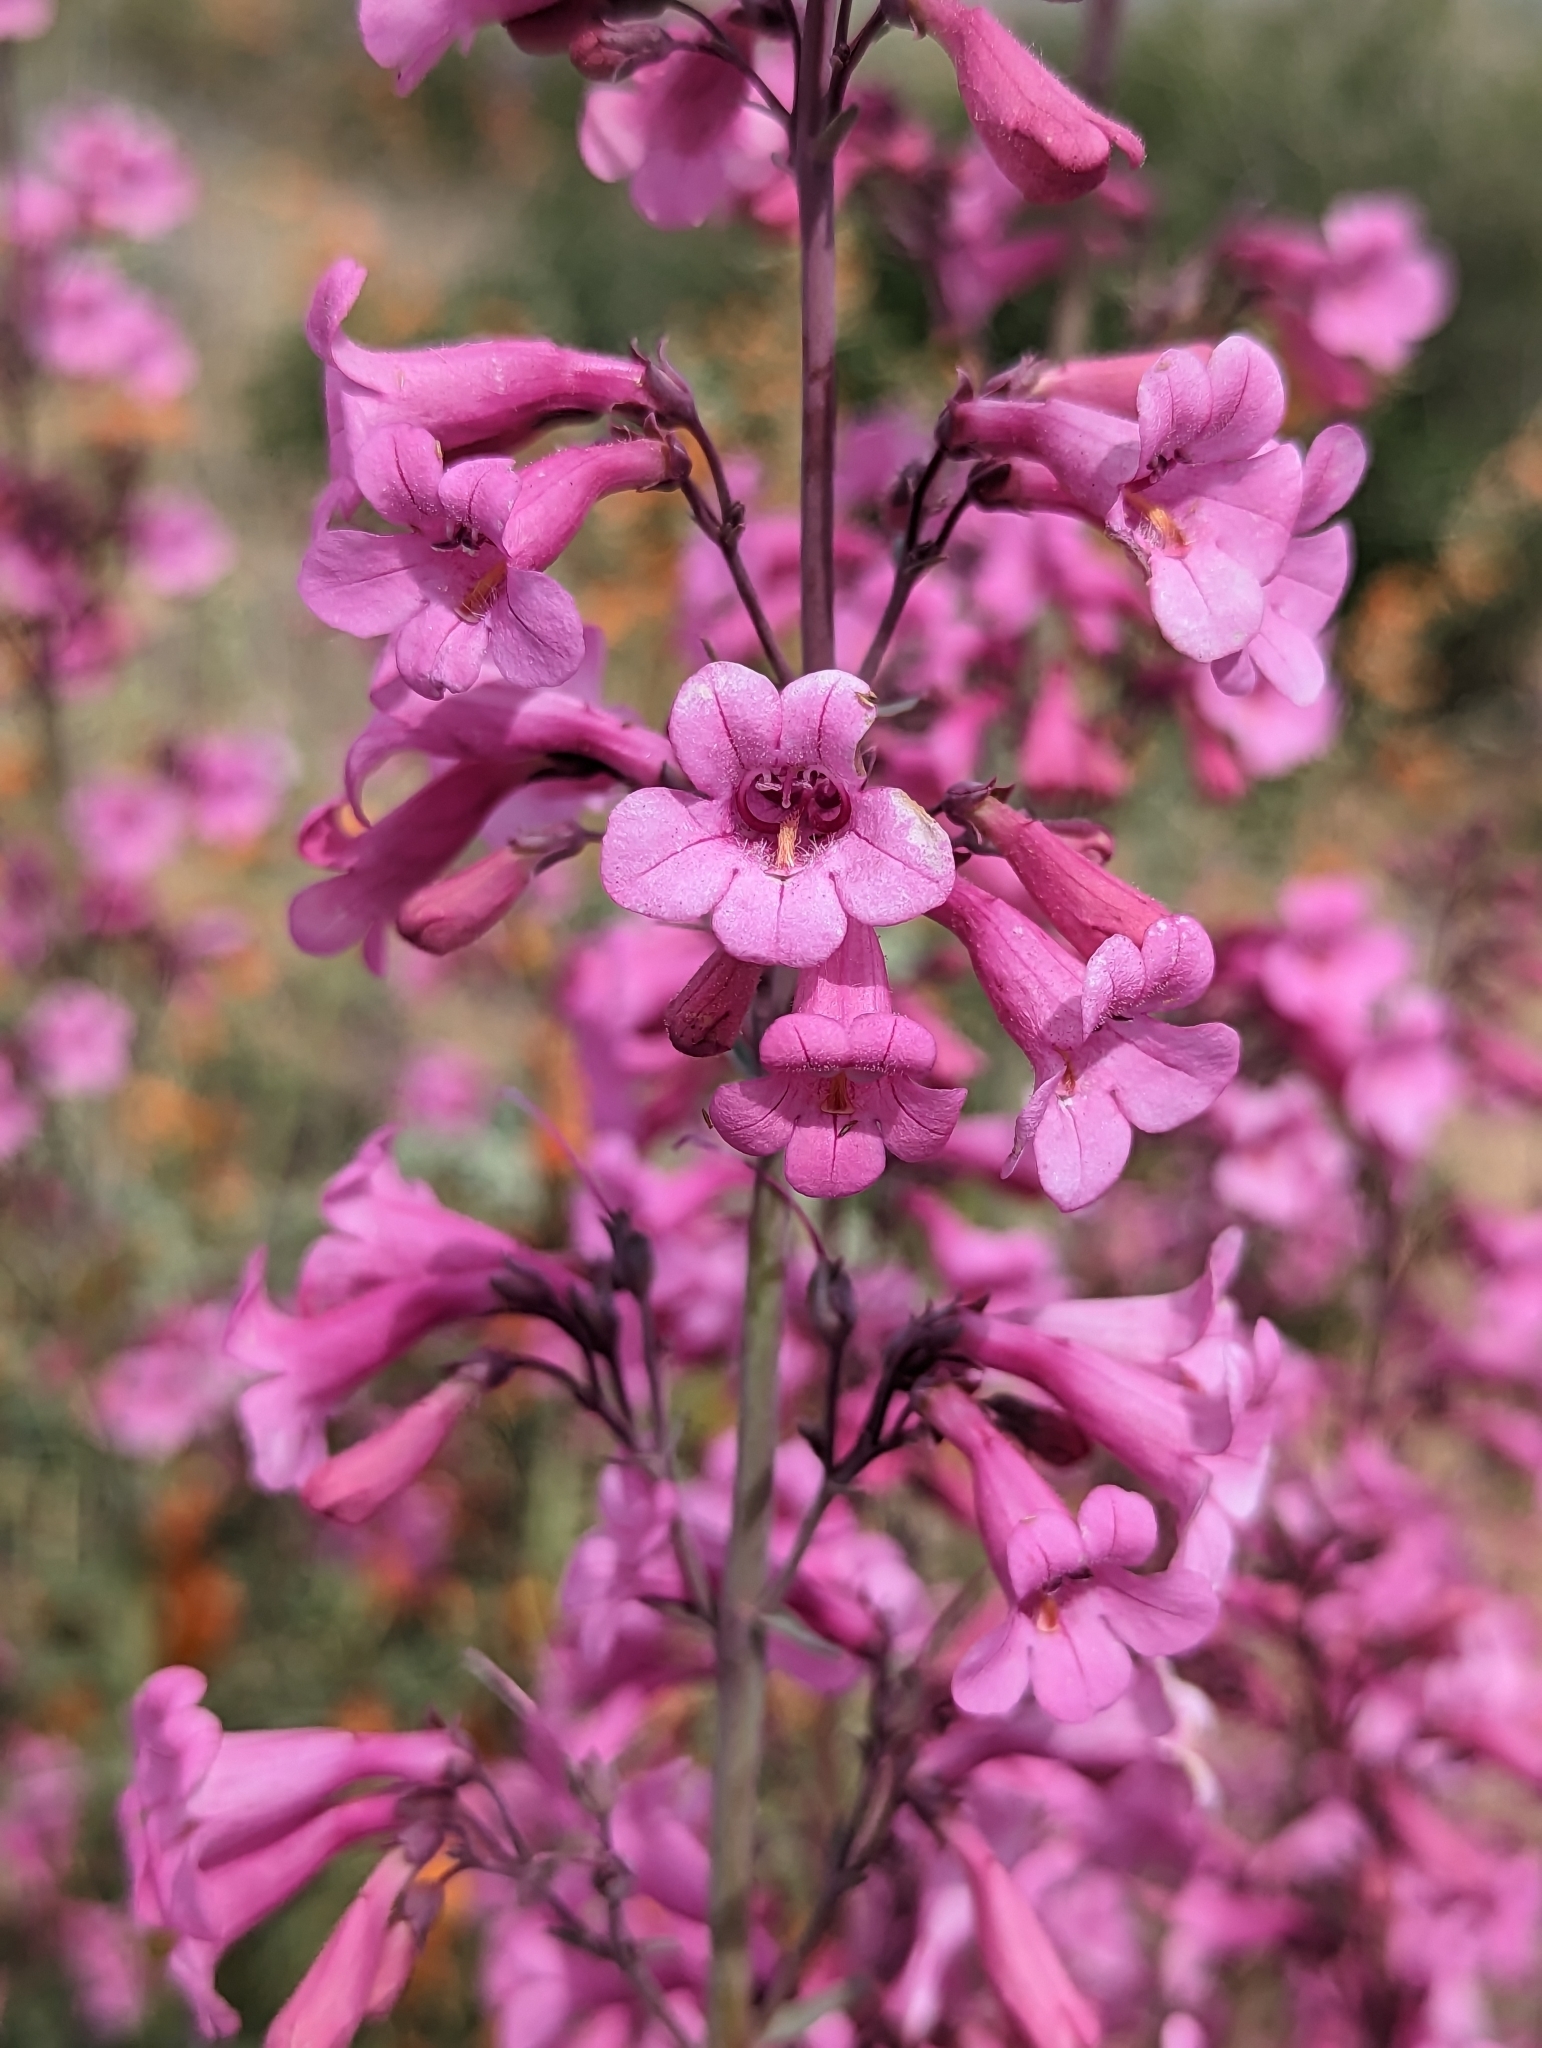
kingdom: Plantae
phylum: Tracheophyta
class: Magnoliopsida
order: Lamiales
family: Plantaginaceae
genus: Penstemon
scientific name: Penstemon parryi
